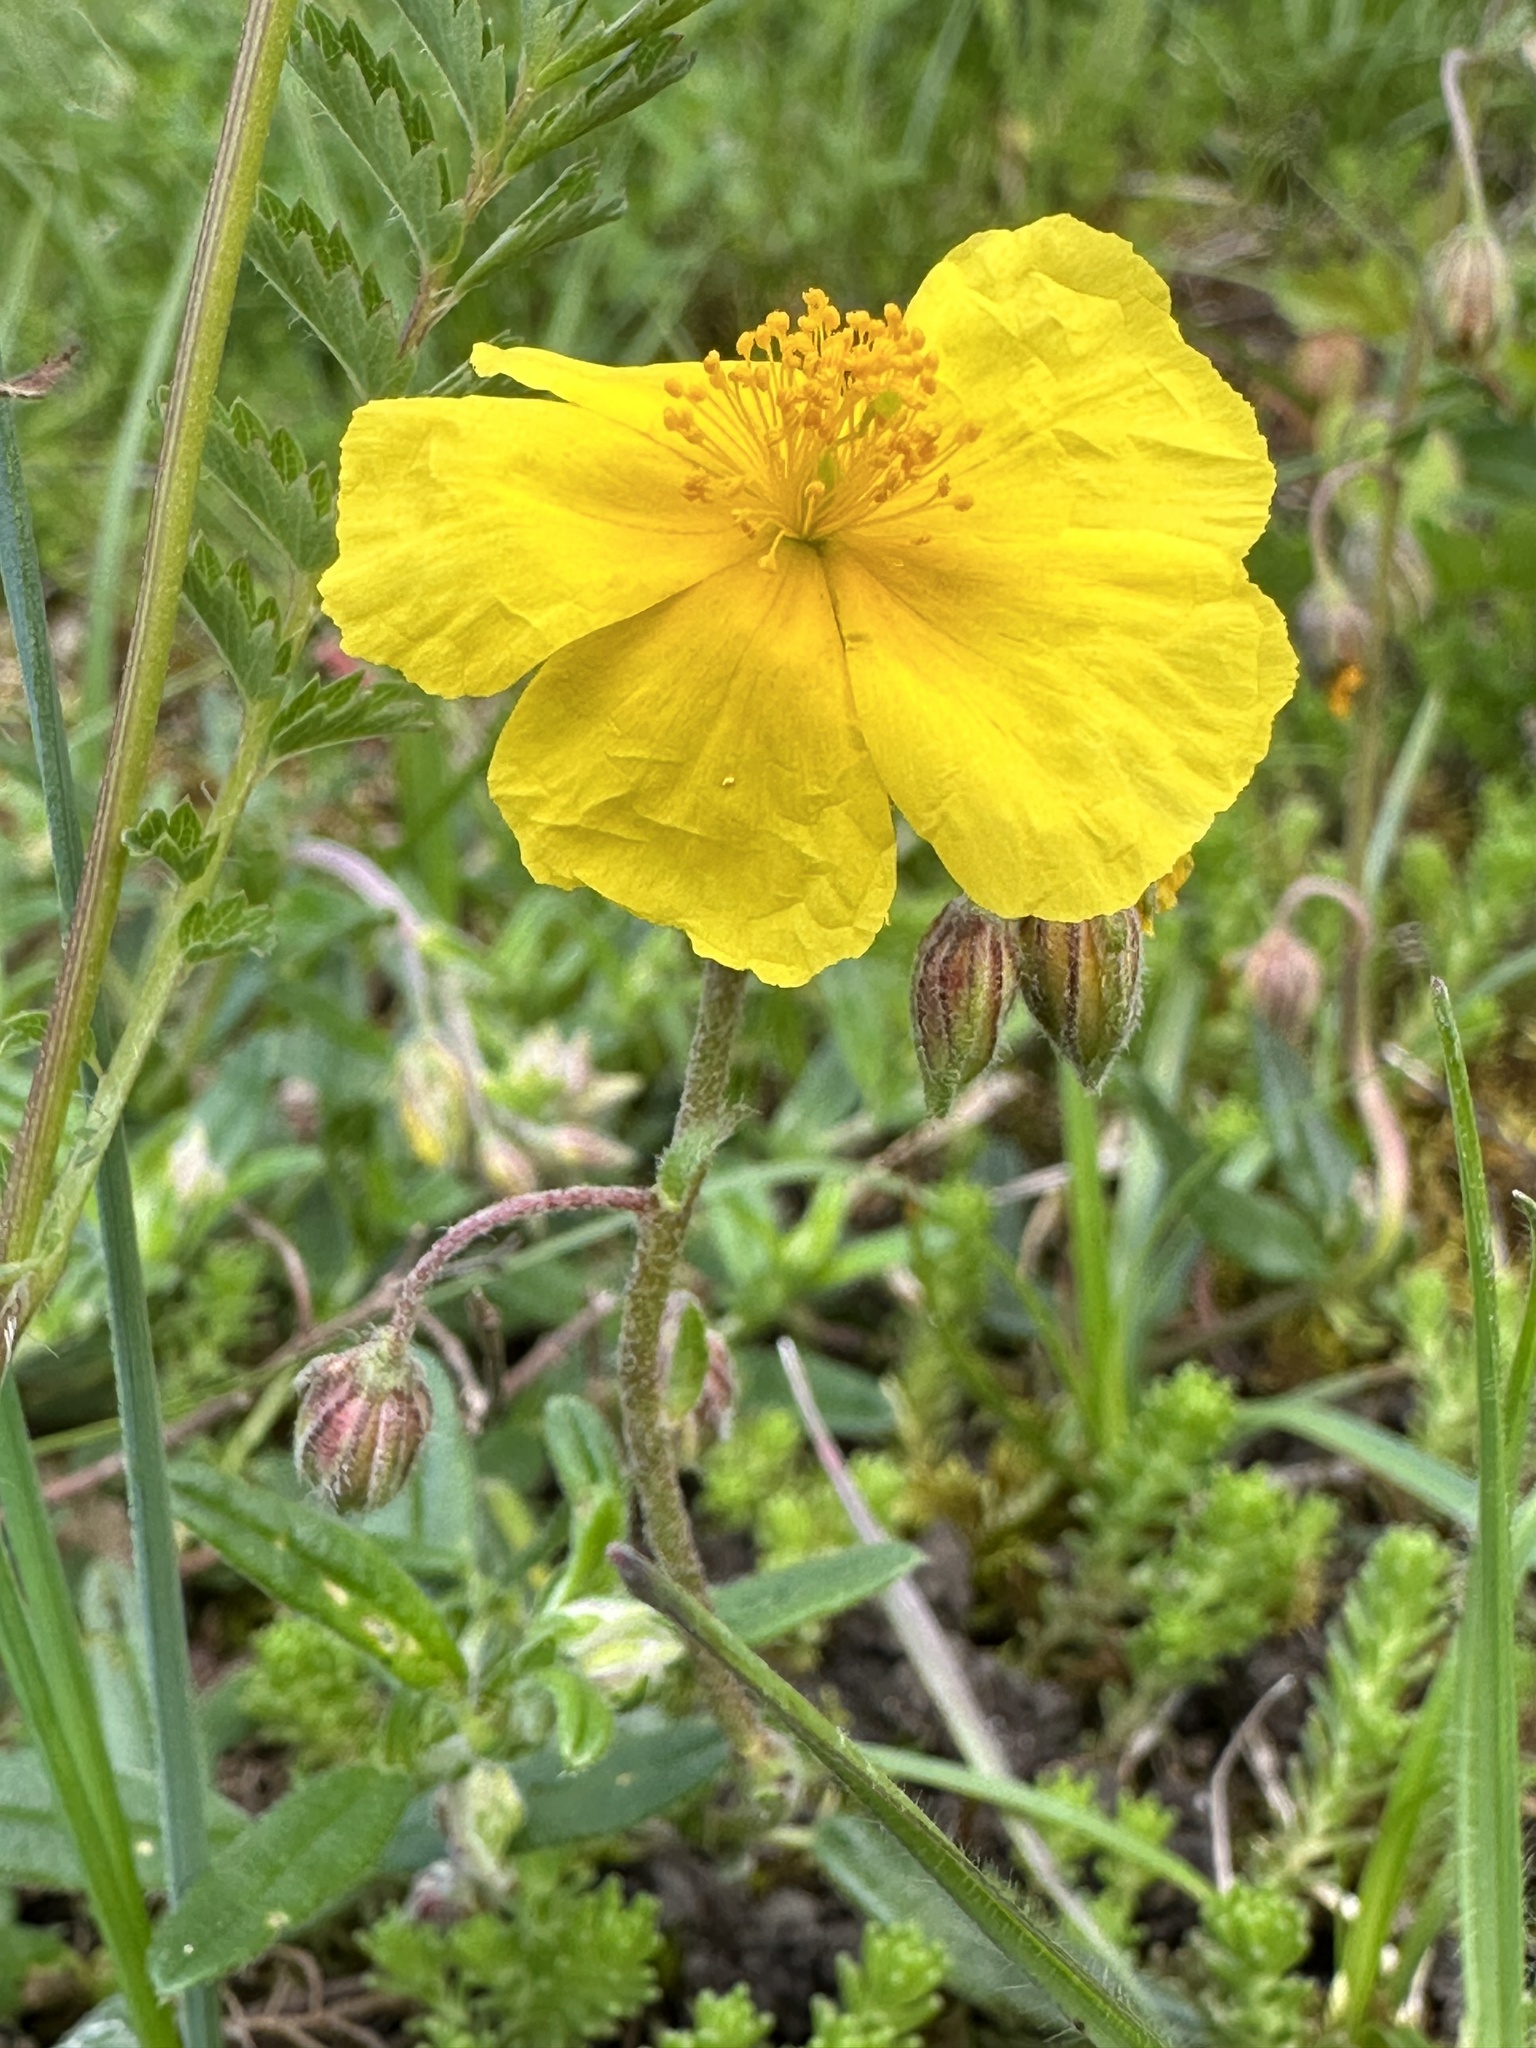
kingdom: Plantae
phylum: Tracheophyta
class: Magnoliopsida
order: Malvales
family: Cistaceae
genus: Helianthemum
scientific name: Helianthemum nummularium
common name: Common rock-rose
